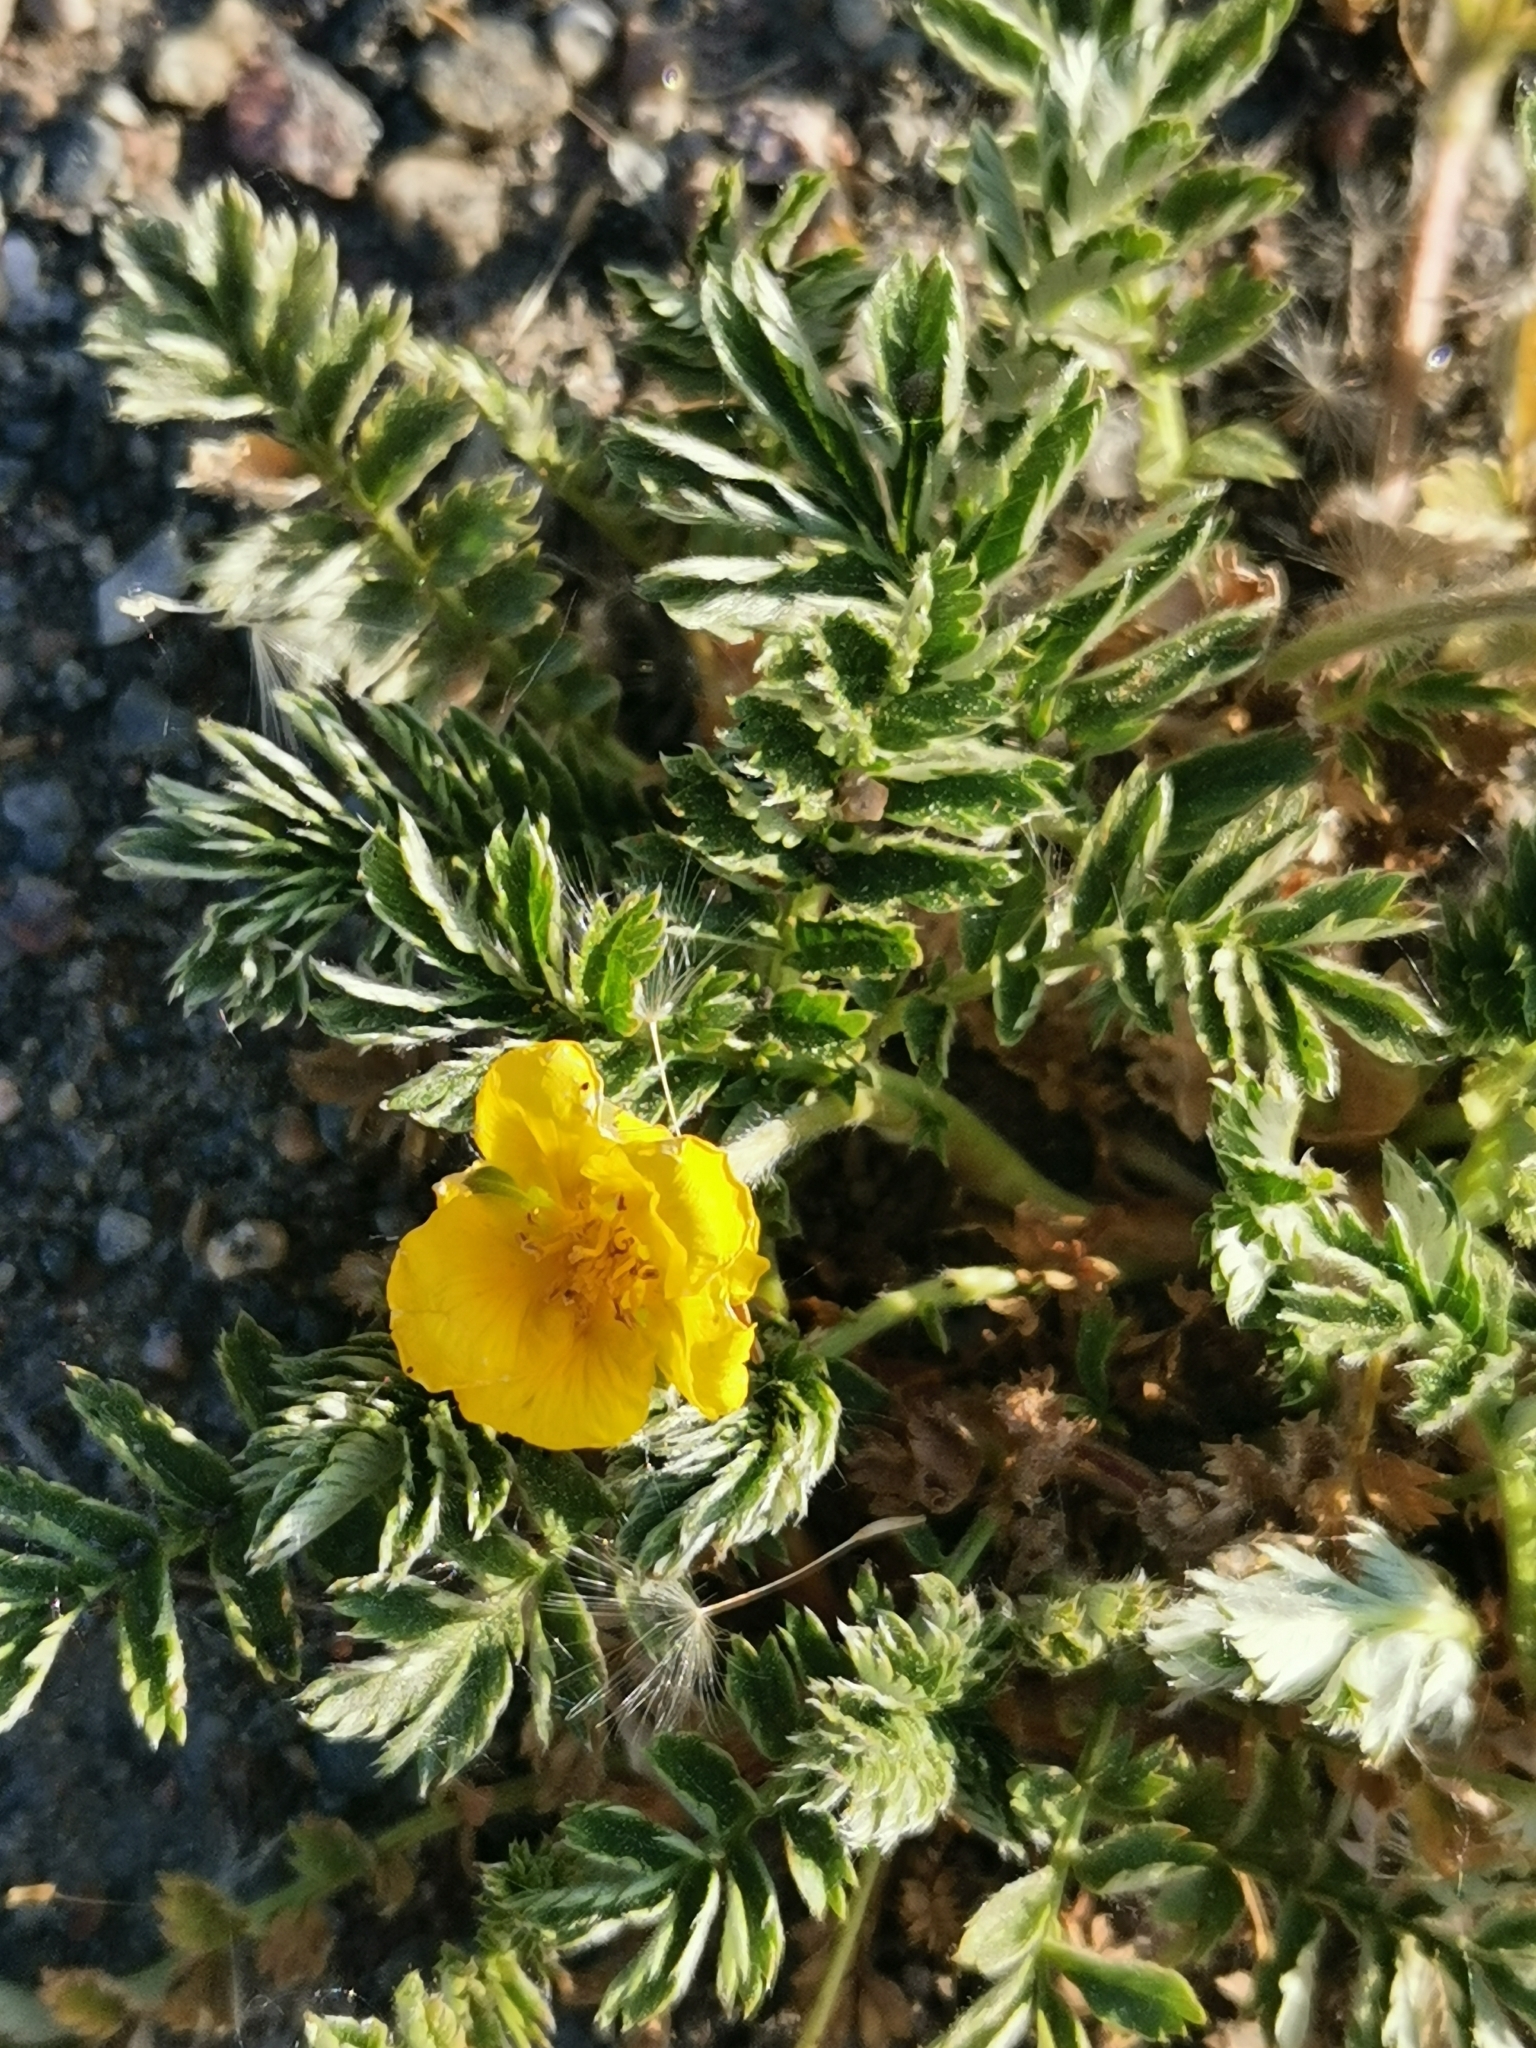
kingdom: Plantae
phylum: Tracheophyta
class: Magnoliopsida
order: Rosales
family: Rosaceae
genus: Argentina
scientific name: Argentina anserina
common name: Common silverweed
